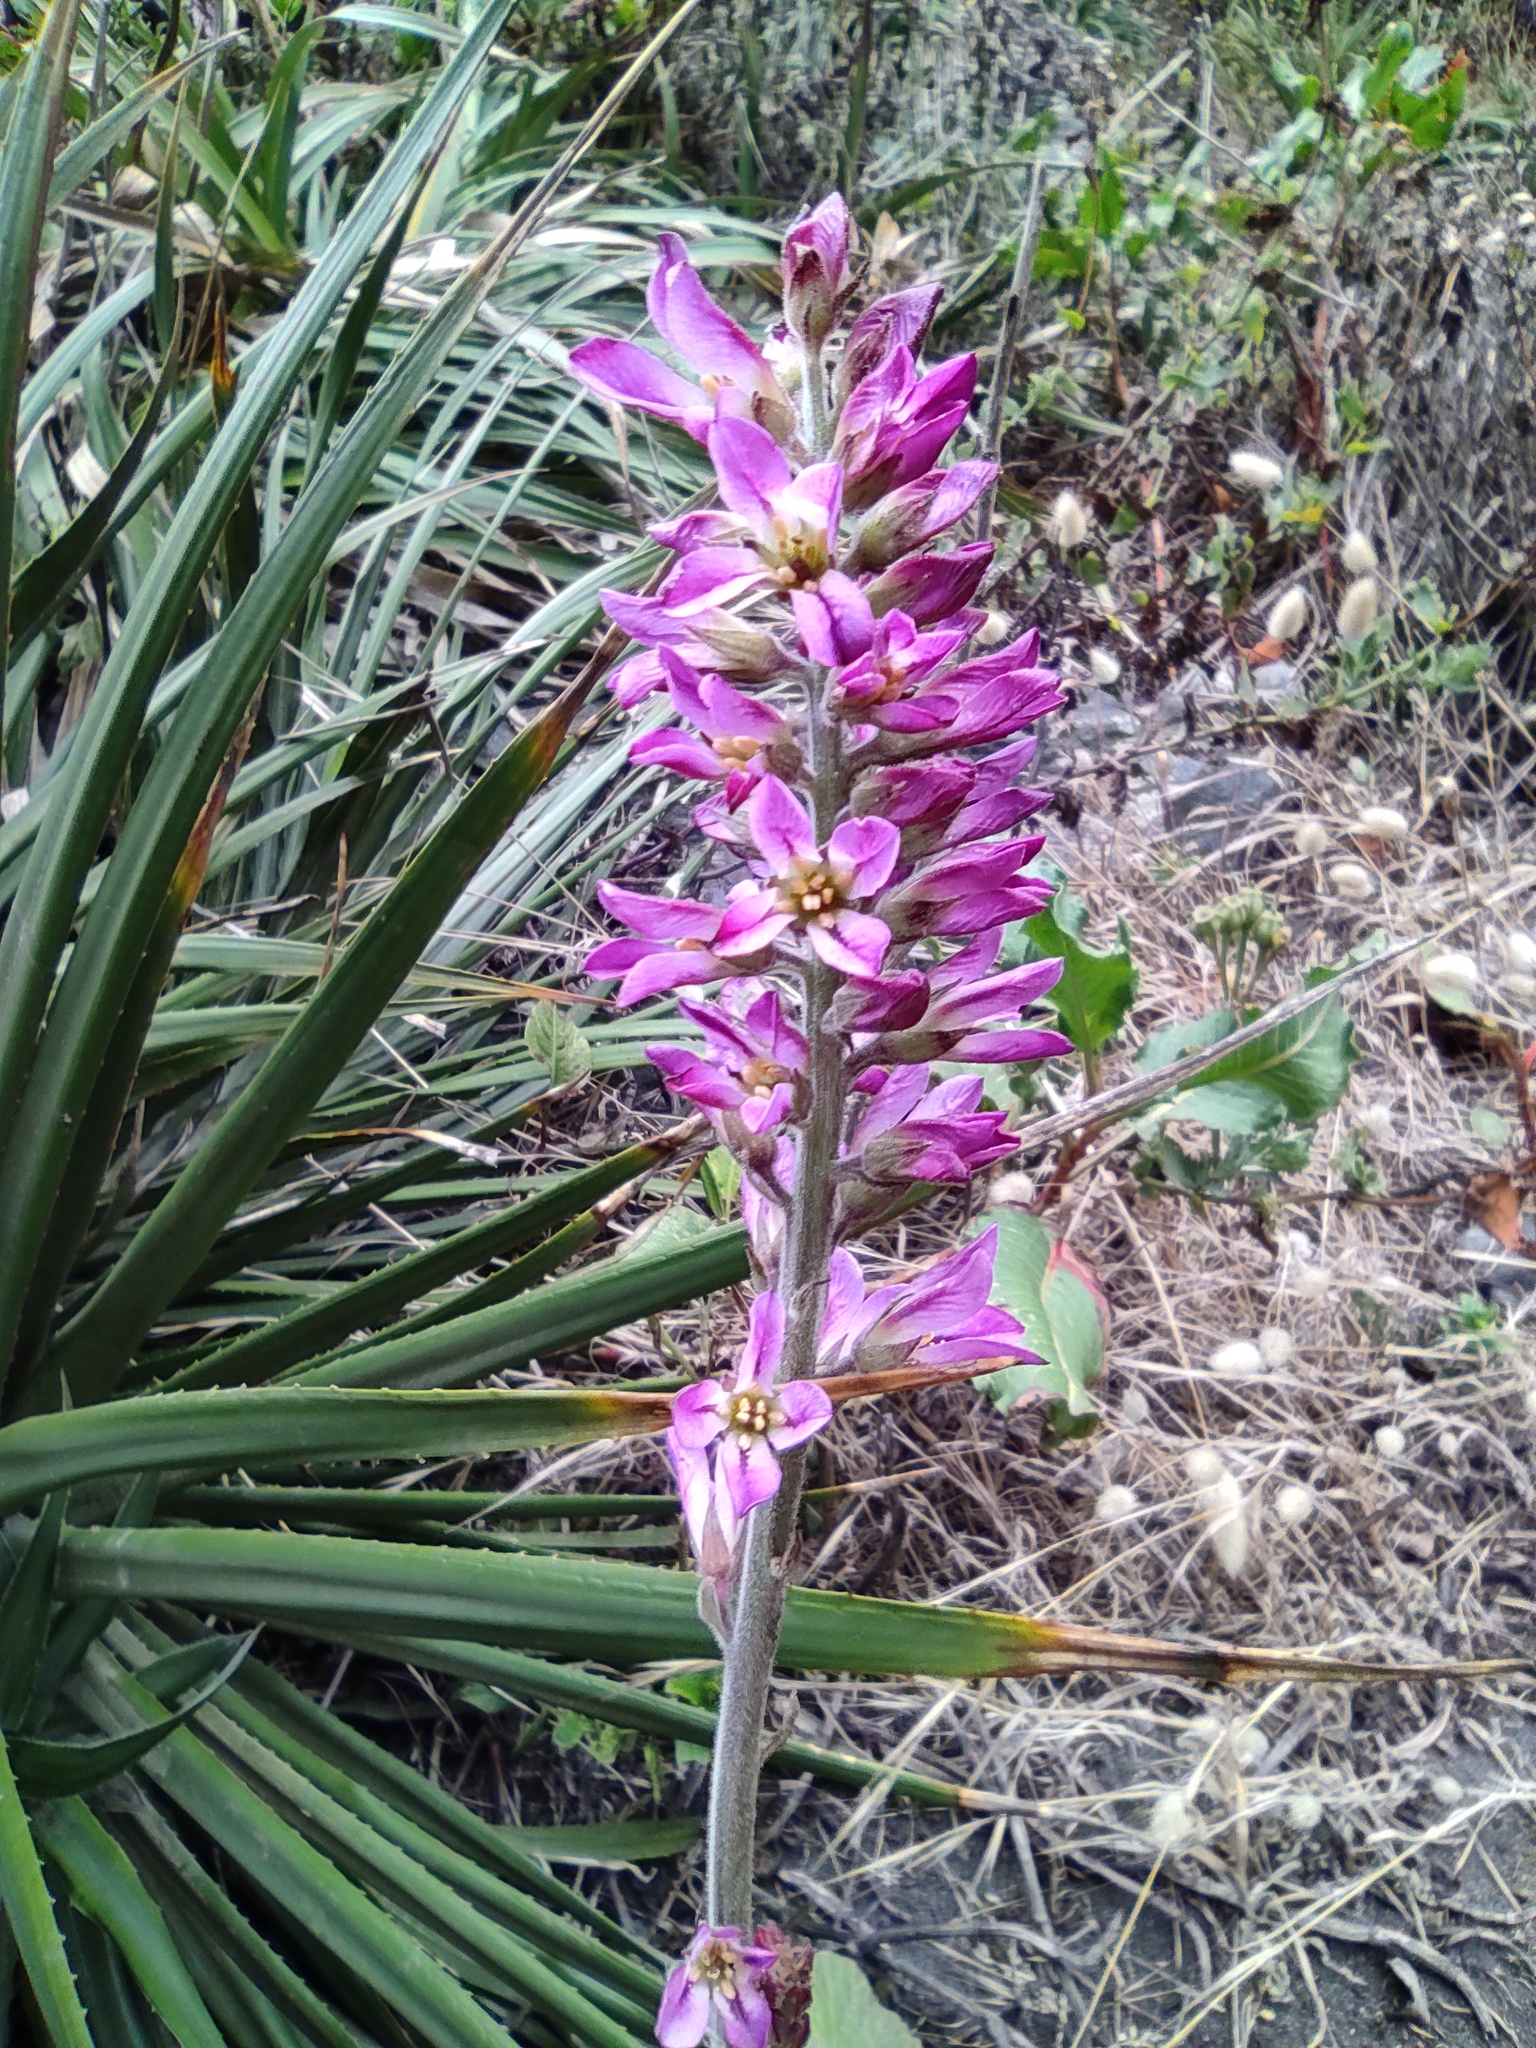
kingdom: Plantae
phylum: Tracheophyta
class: Magnoliopsida
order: Geraniales
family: Francoaceae
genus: Francoa
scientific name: Francoa appendiculata
